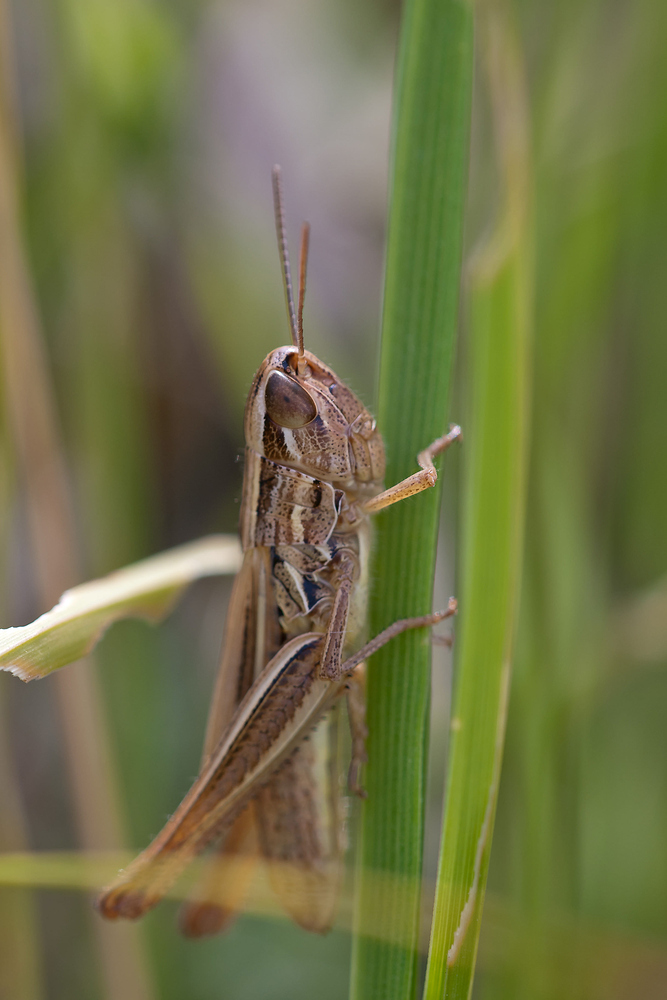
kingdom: Animalia
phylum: Arthropoda
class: Insecta
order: Orthoptera
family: Acrididae
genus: Euchorthippus
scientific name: Euchorthippus declivus
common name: Common straw grasshopper
